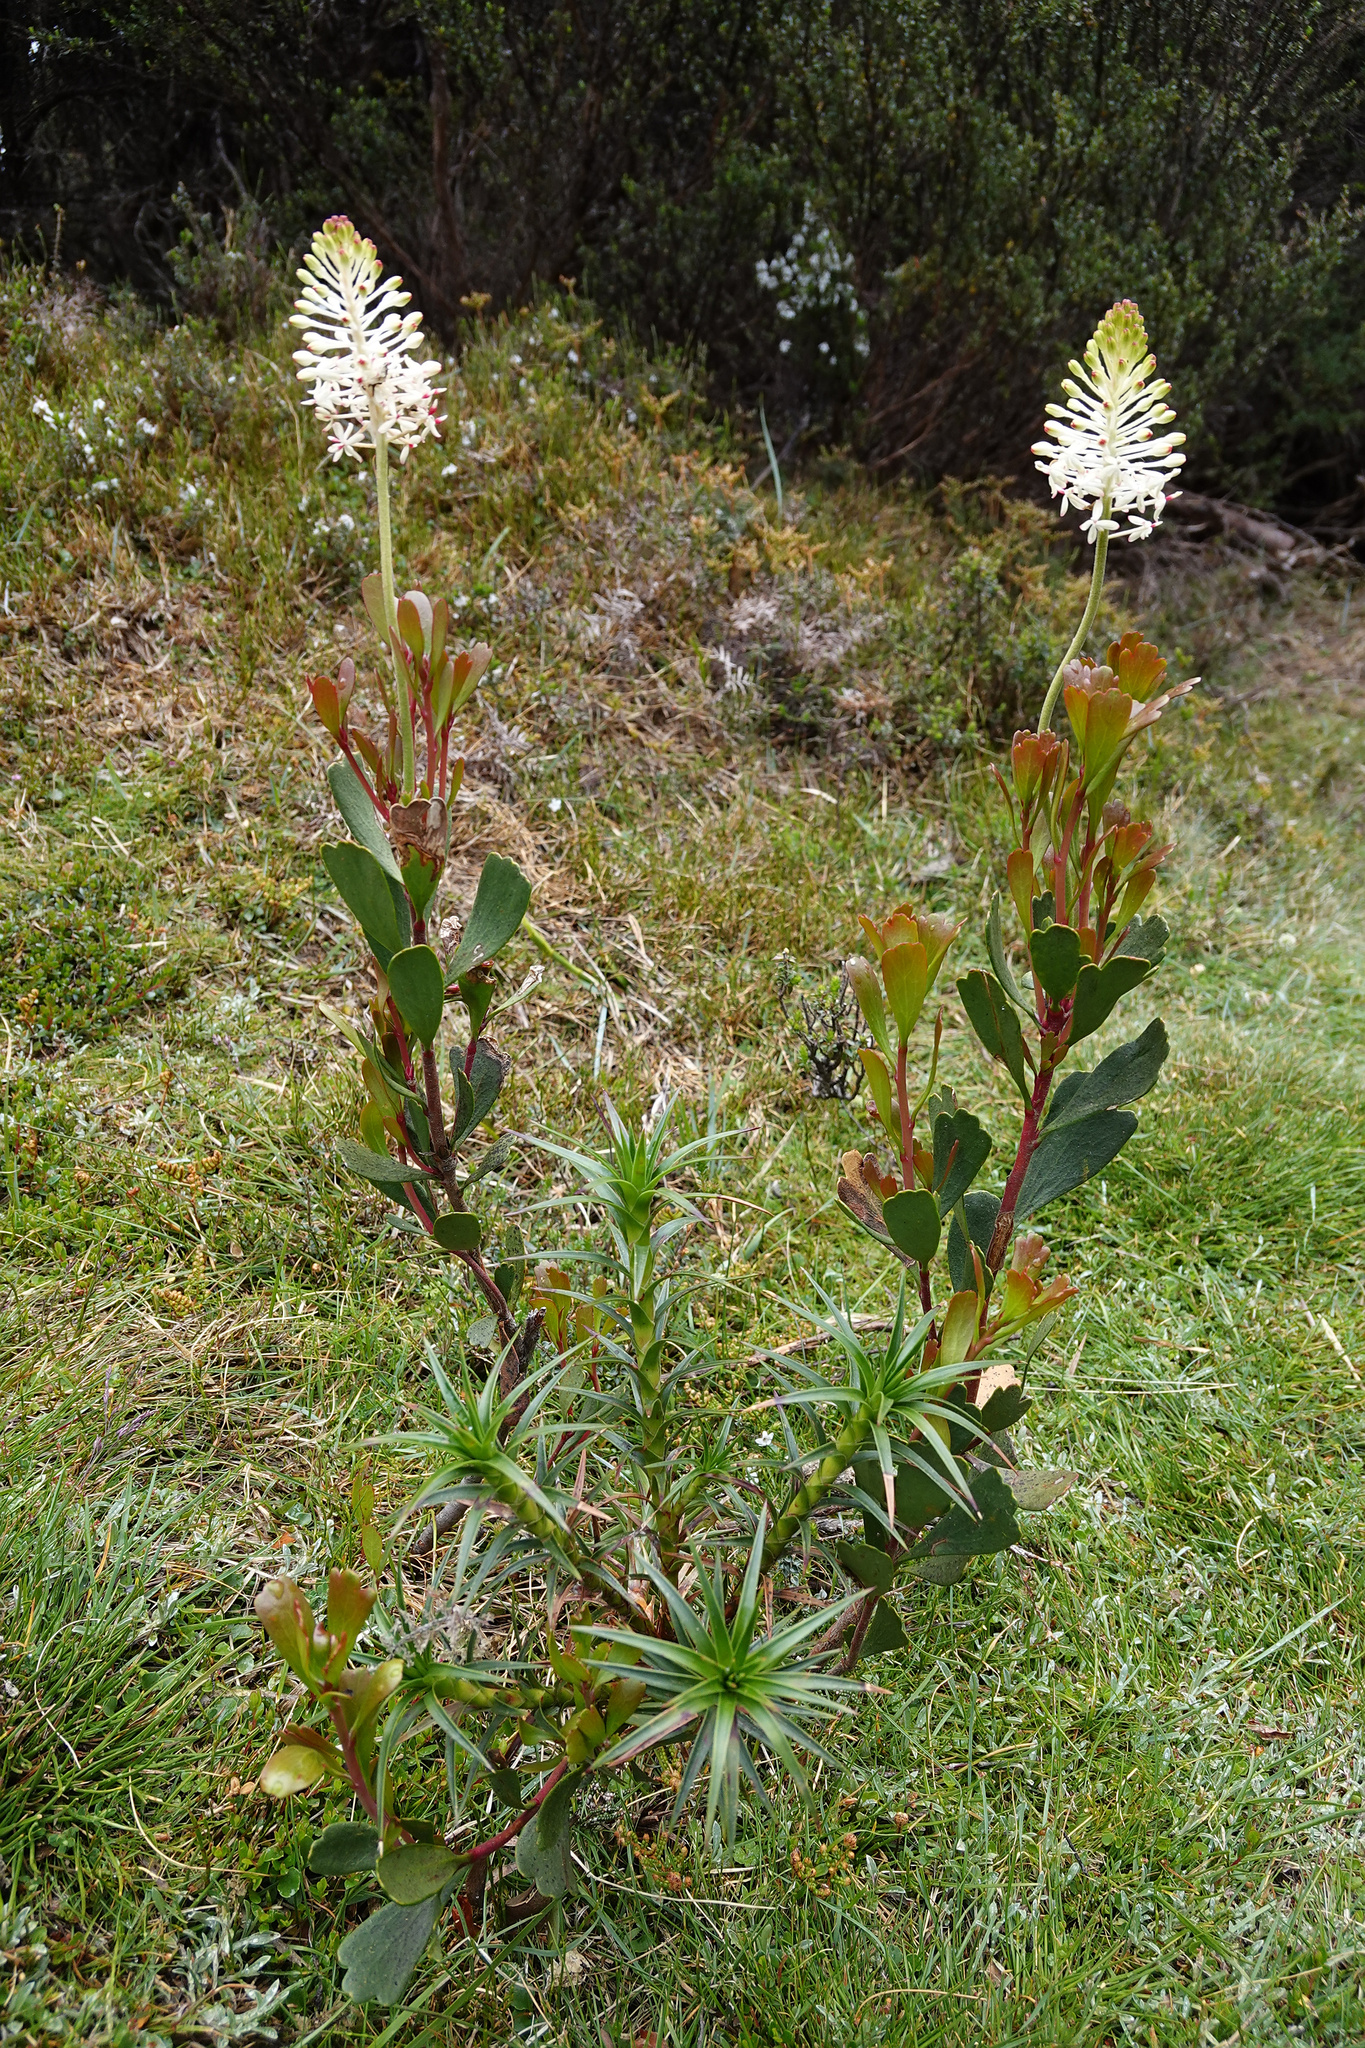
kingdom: Plantae
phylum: Tracheophyta
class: Magnoliopsida
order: Proteales
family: Proteaceae
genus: Bellendena
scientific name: Bellendena montana
